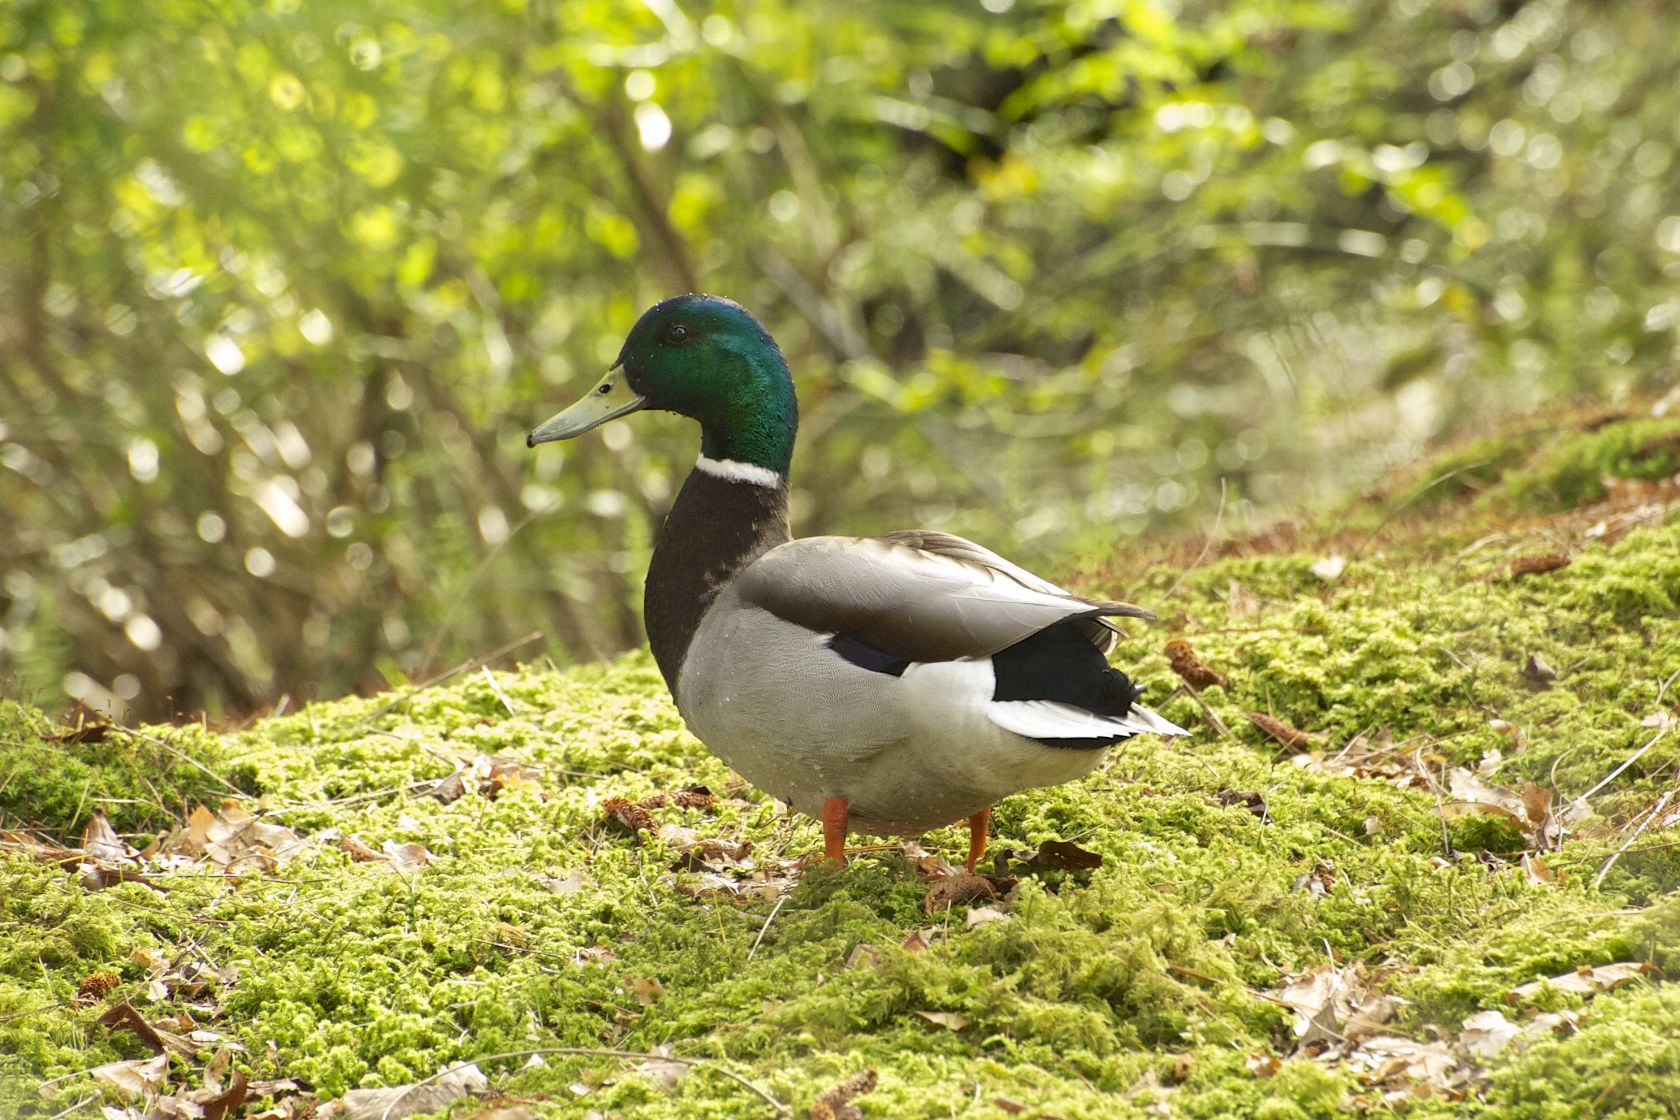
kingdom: Animalia
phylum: Chordata
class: Aves
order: Anseriformes
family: Anatidae
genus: Anas
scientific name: Anas platyrhynchos
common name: Mallard
